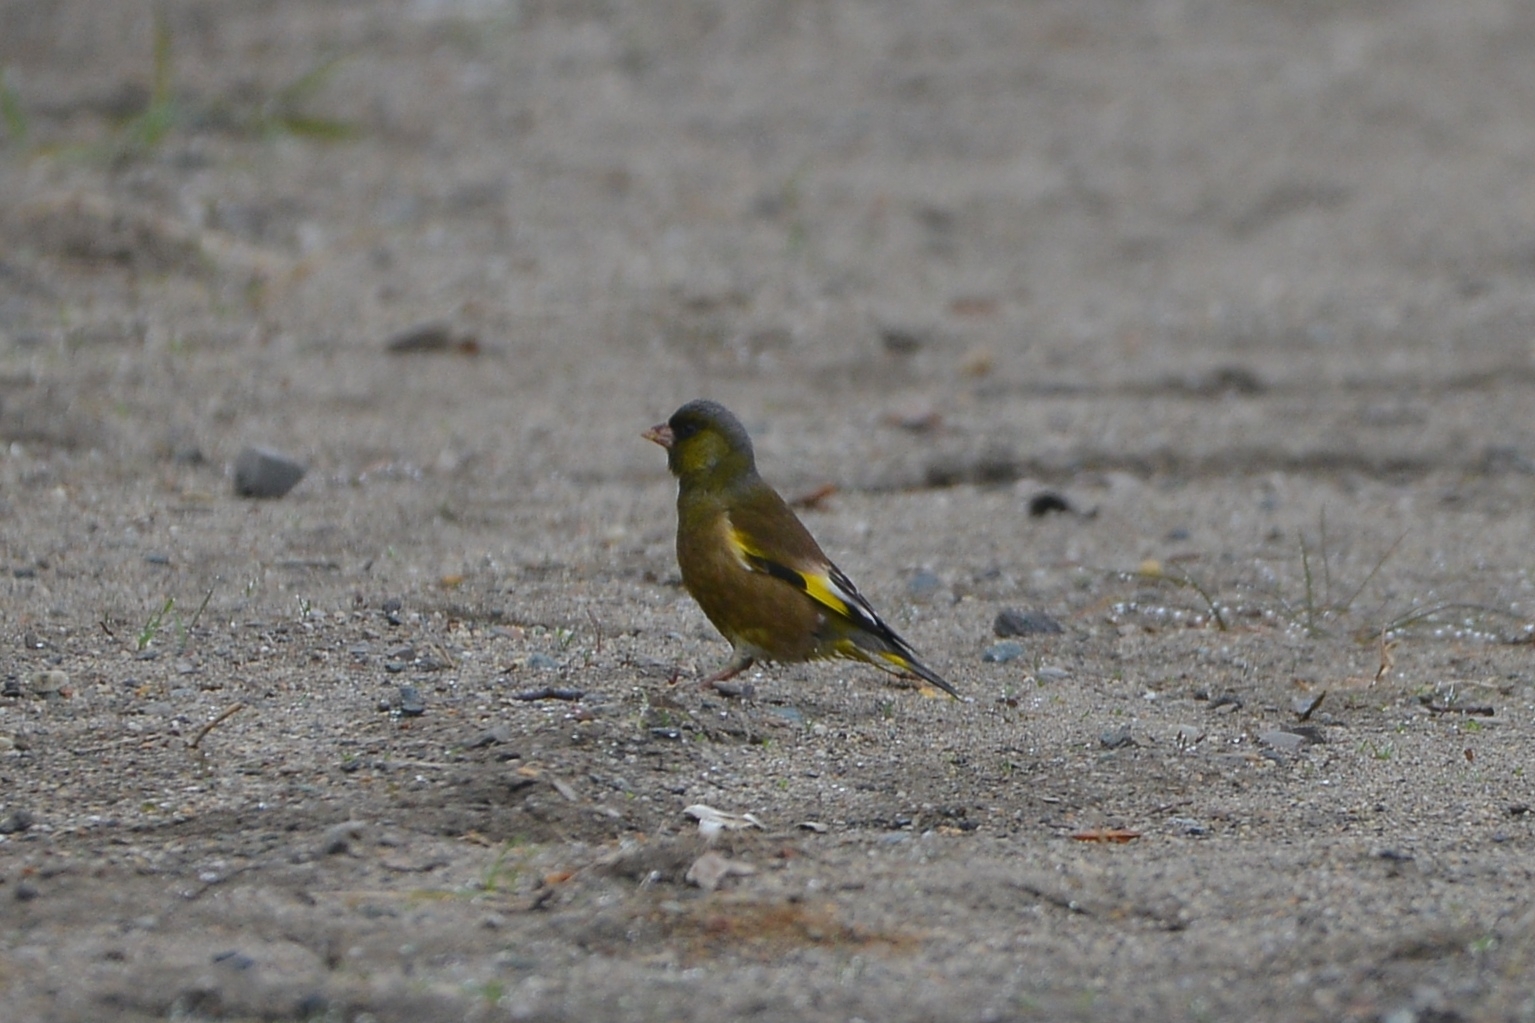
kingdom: Plantae
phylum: Tracheophyta
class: Liliopsida
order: Poales
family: Poaceae
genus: Chloris
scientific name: Chloris sinica
